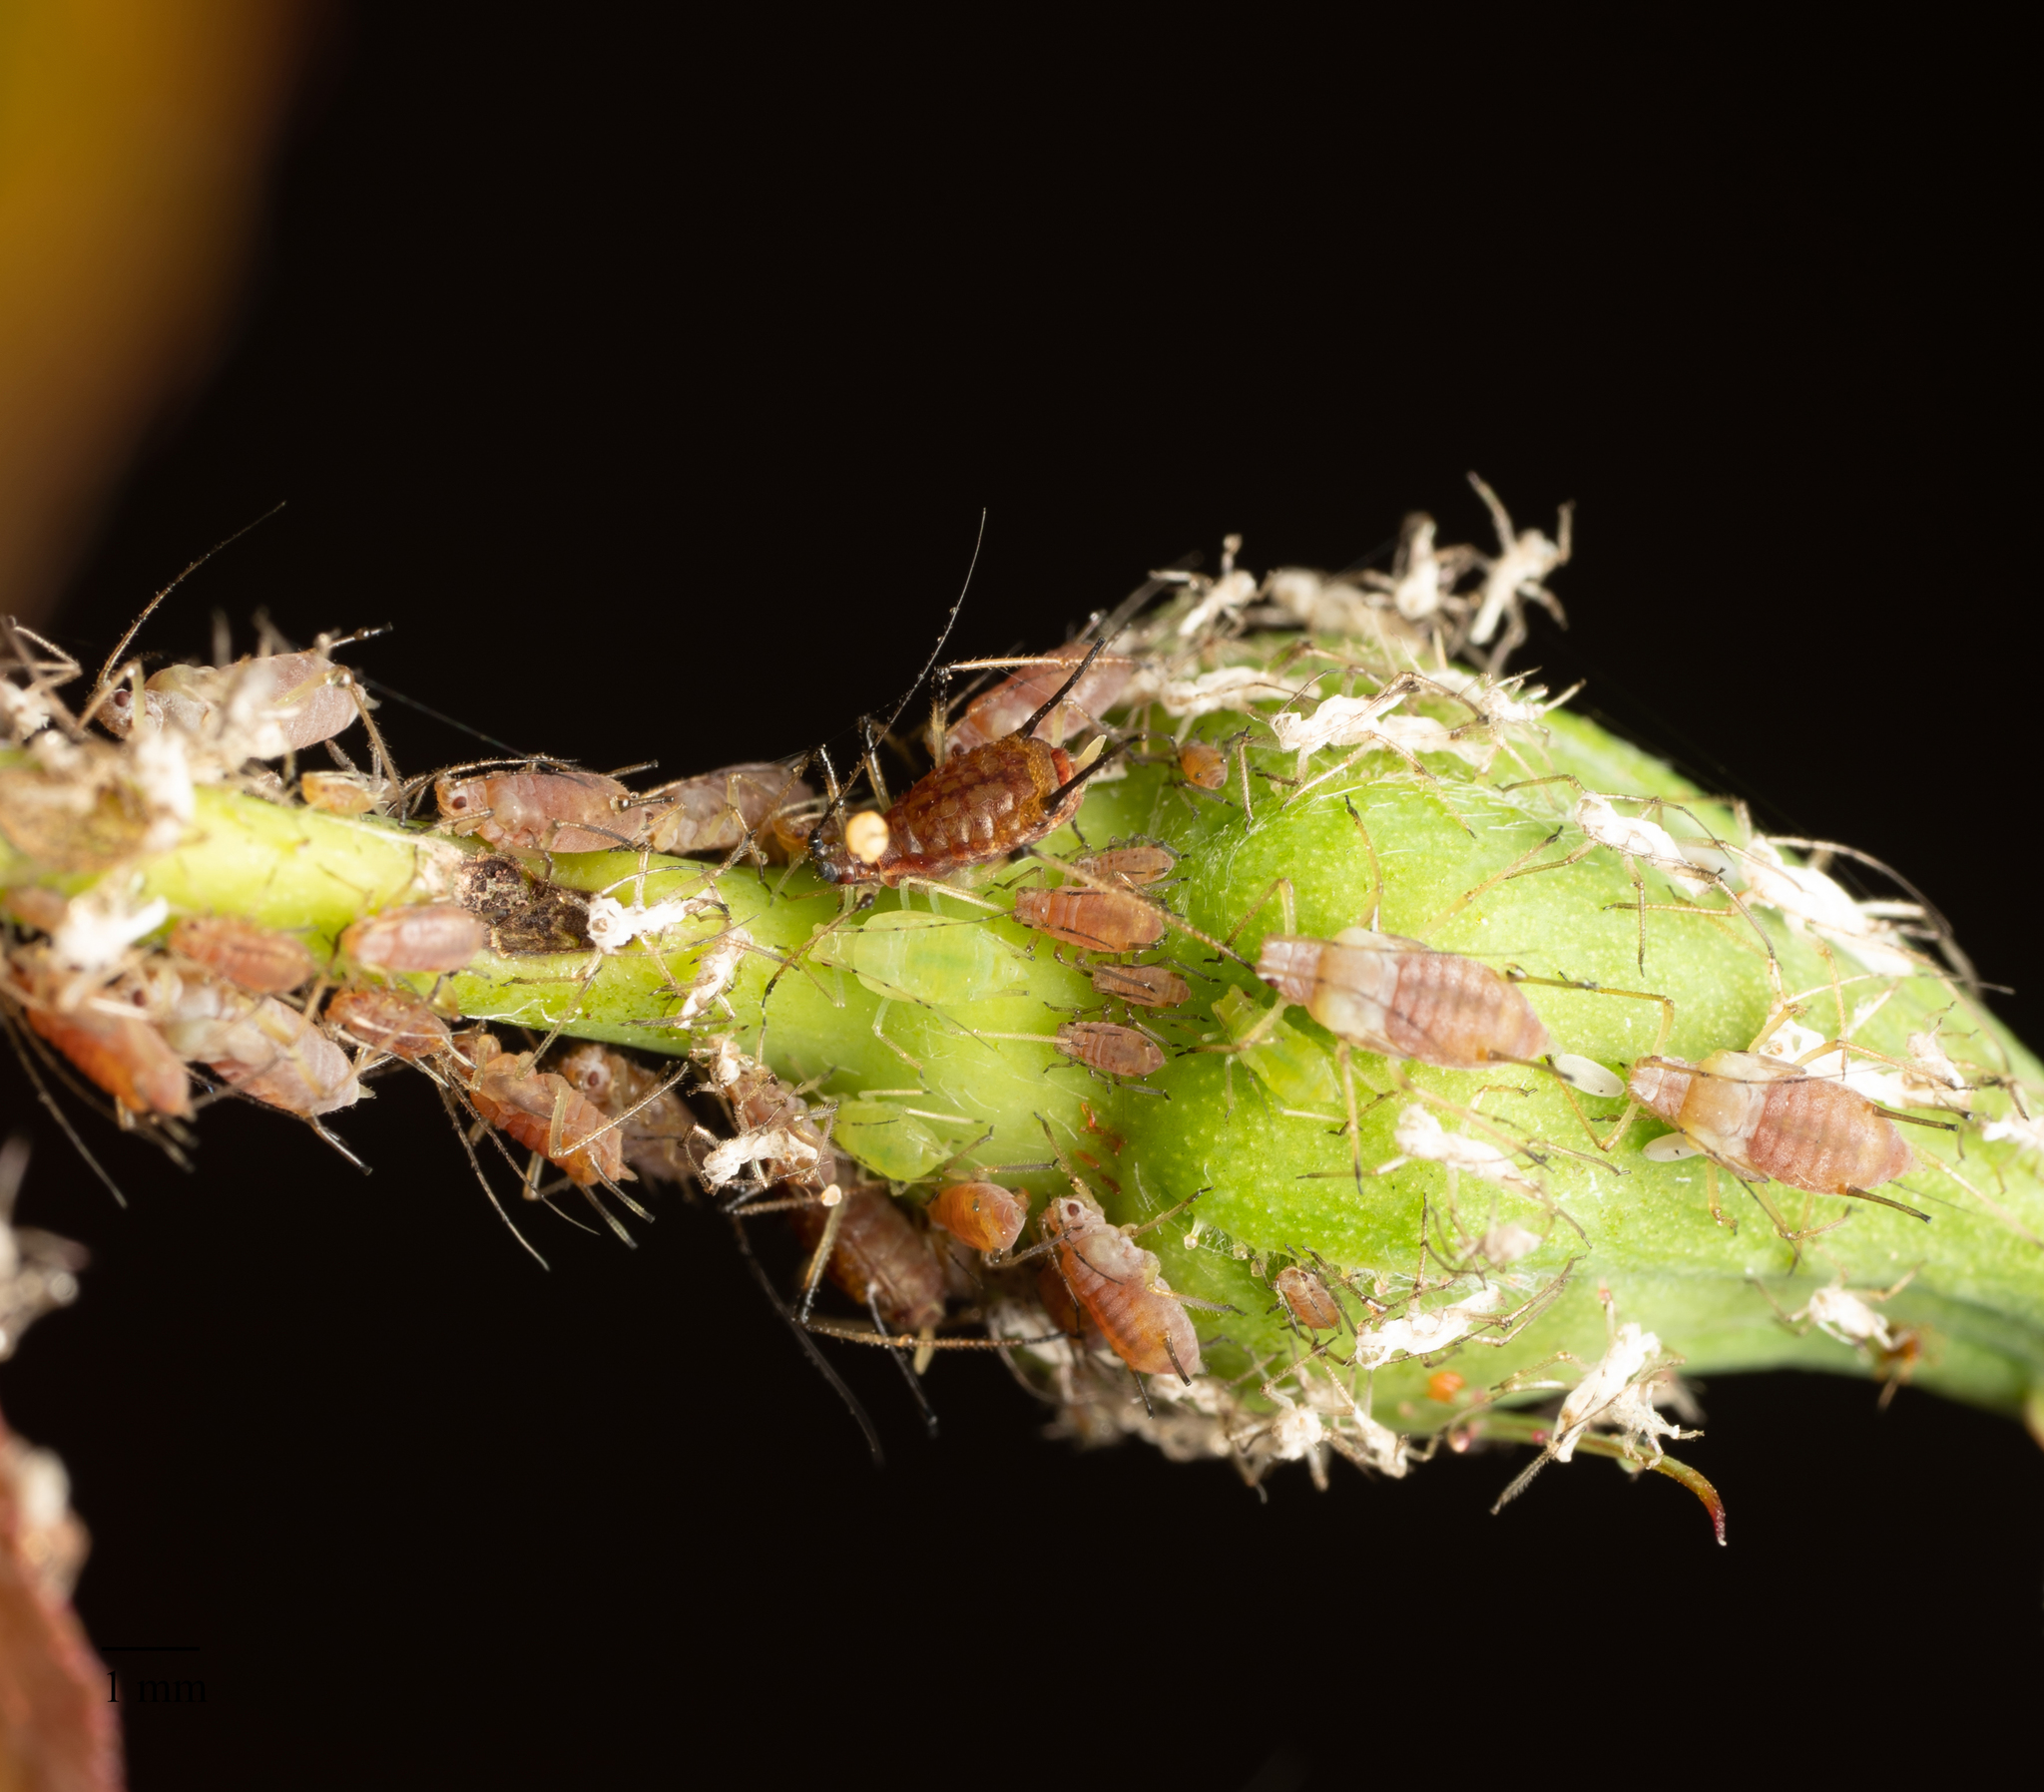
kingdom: Animalia
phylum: Arthropoda
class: Insecta
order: Hemiptera
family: Aphididae
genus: Macrosiphum
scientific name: Macrosiphum rosae
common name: Rose aphid
